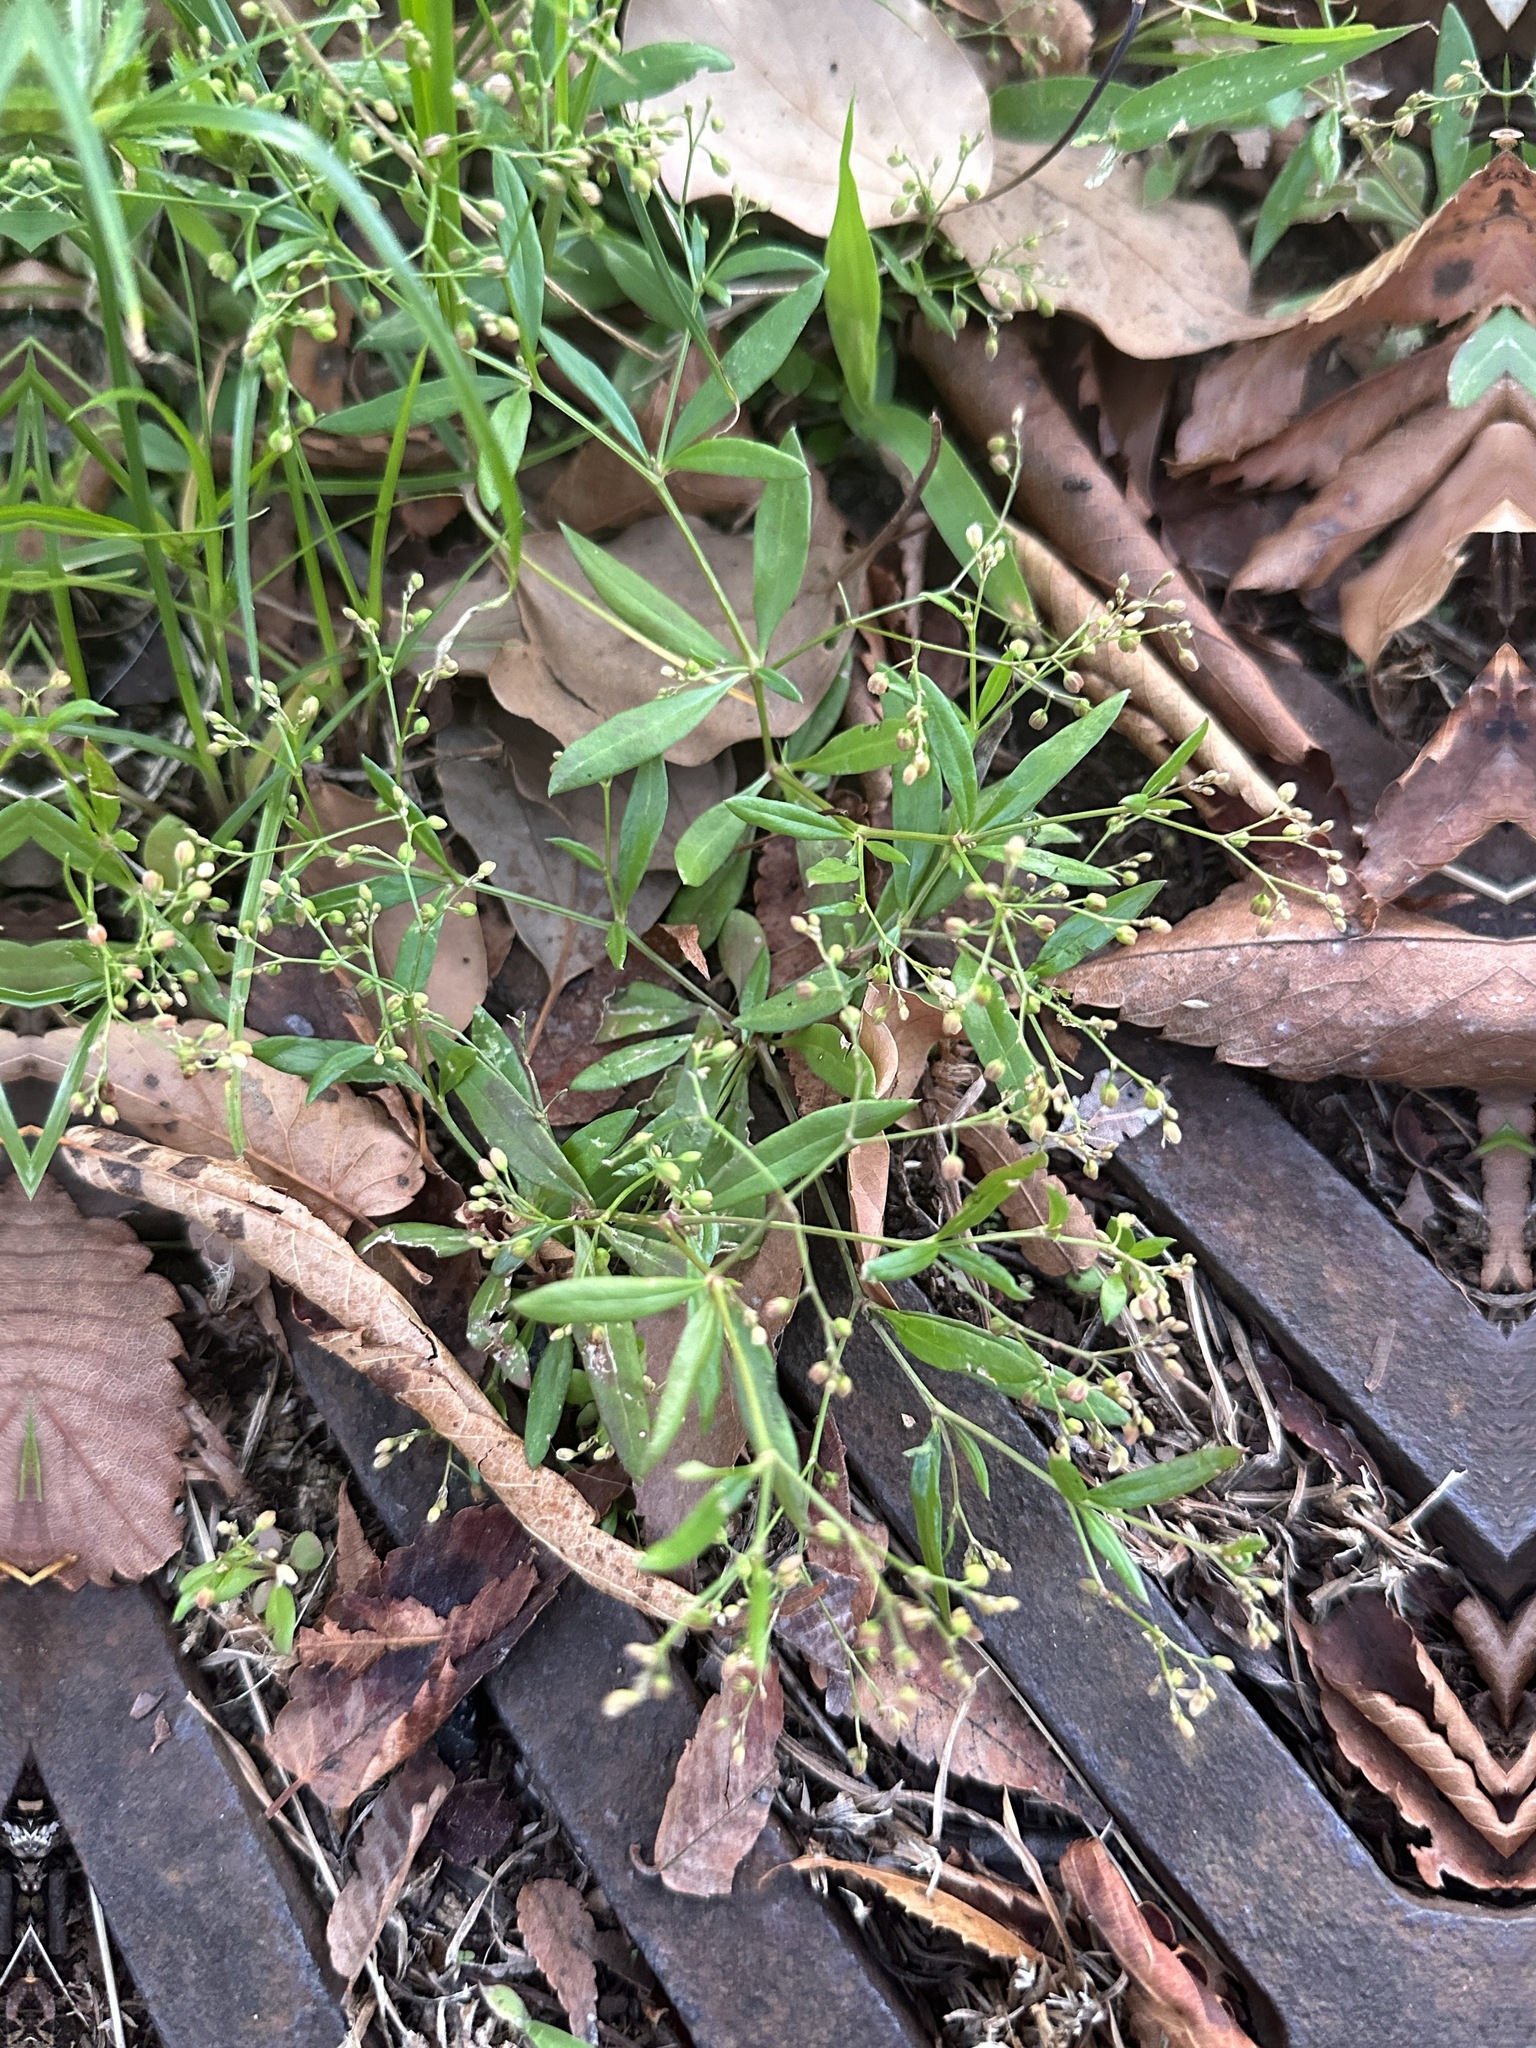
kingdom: Plantae
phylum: Tracheophyta
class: Magnoliopsida
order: Caryophyllales
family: Molluginaceae
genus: Trigastrotheca
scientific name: Trigastrotheca pentaphylla
